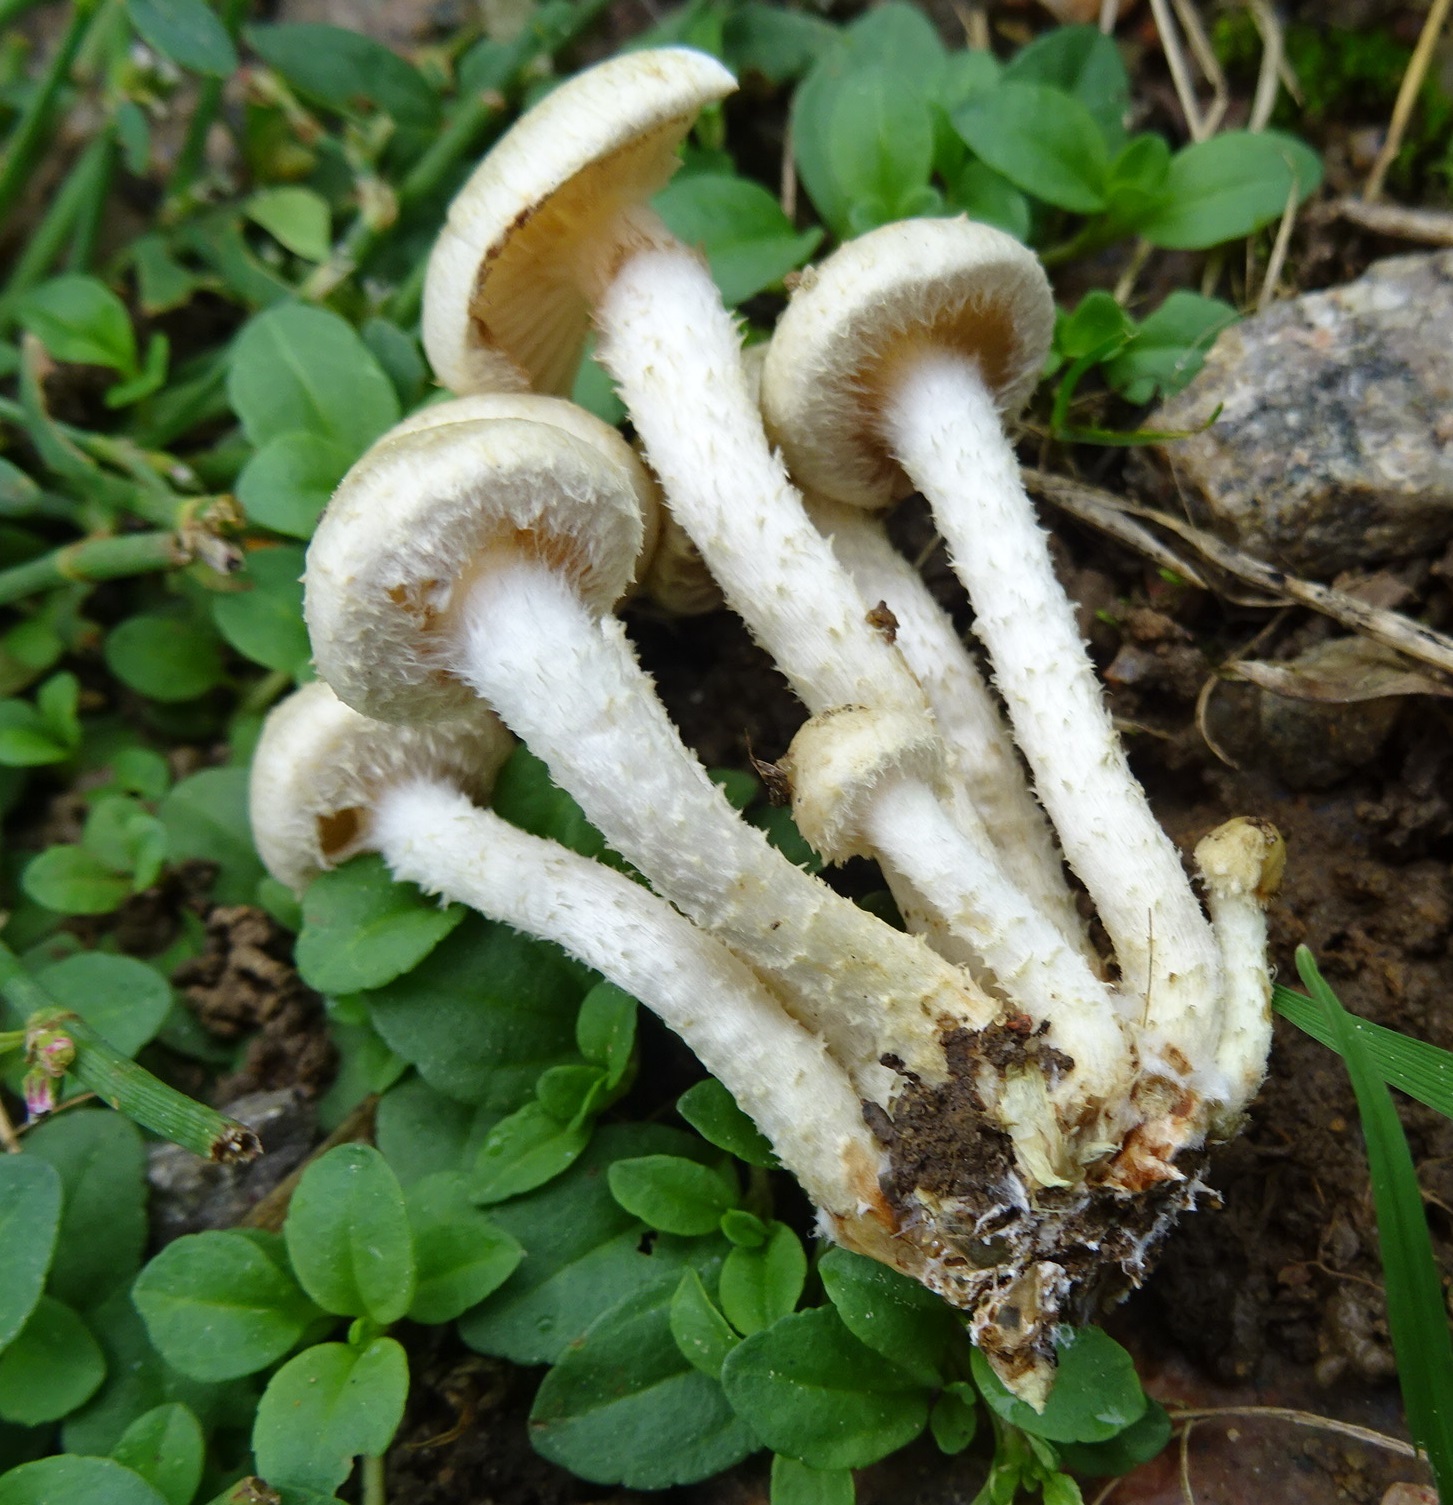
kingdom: Fungi
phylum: Basidiomycota
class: Agaricomycetes
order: Agaricales
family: Strophariaceae
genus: Pholiota
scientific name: Pholiota gummosa
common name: Sticky scalycap
